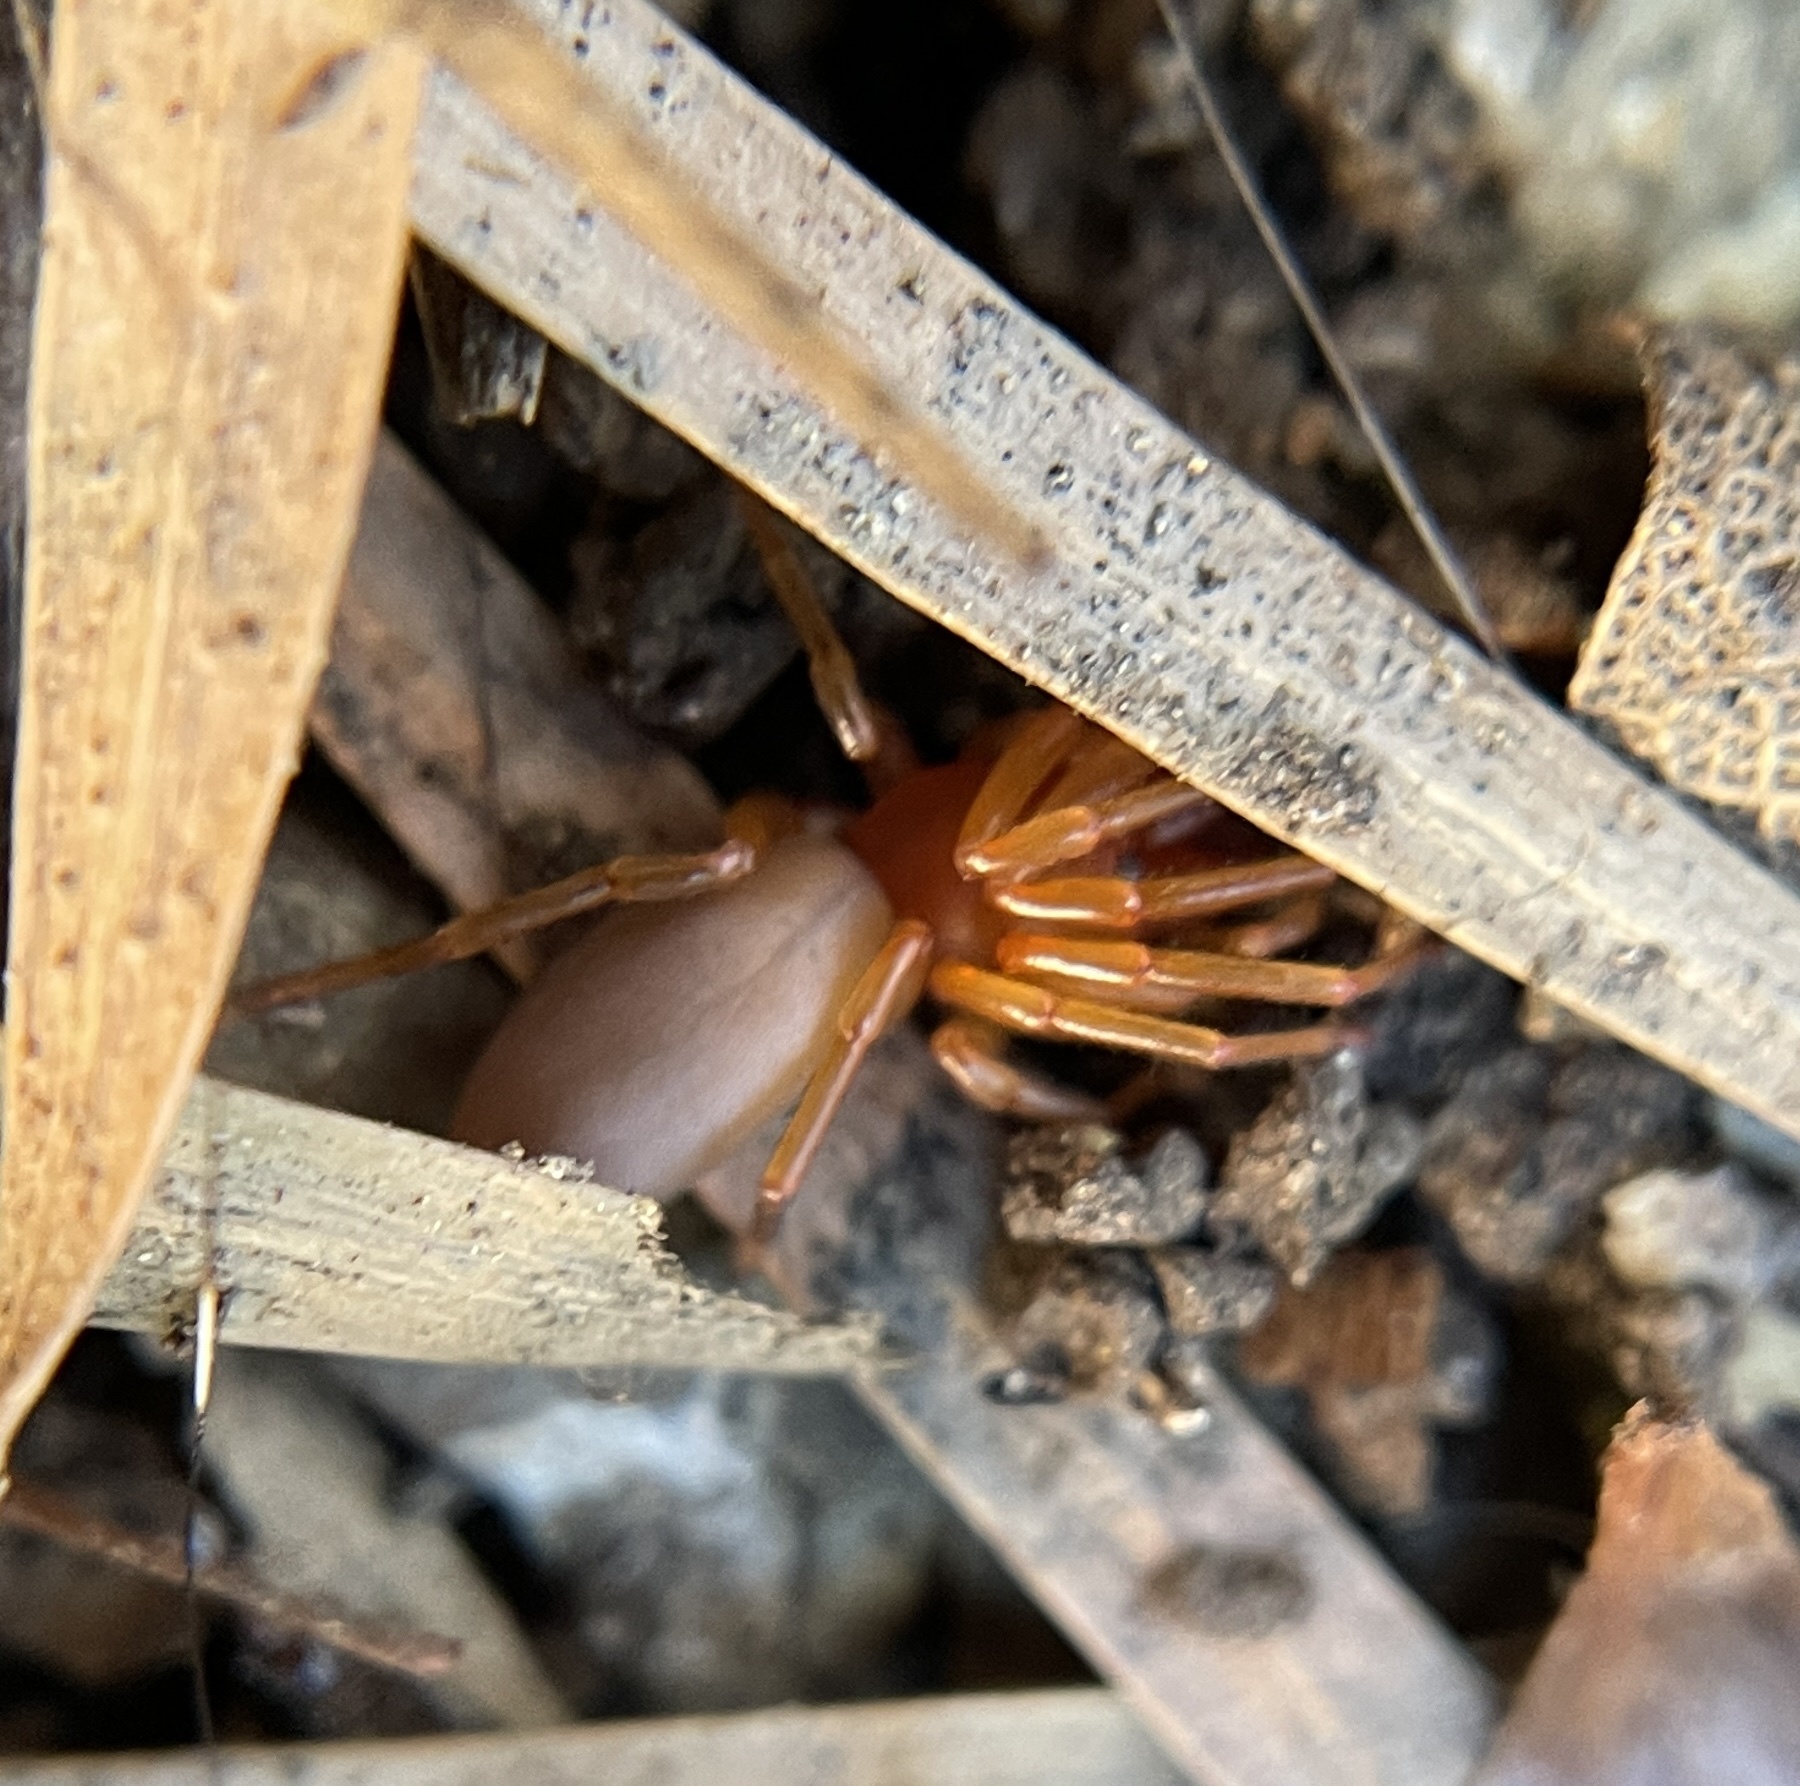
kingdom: Animalia
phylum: Arthropoda
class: Arachnida
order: Araneae
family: Dysderidae
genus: Dysdera
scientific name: Dysdera crocata
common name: Woodlouse spider
